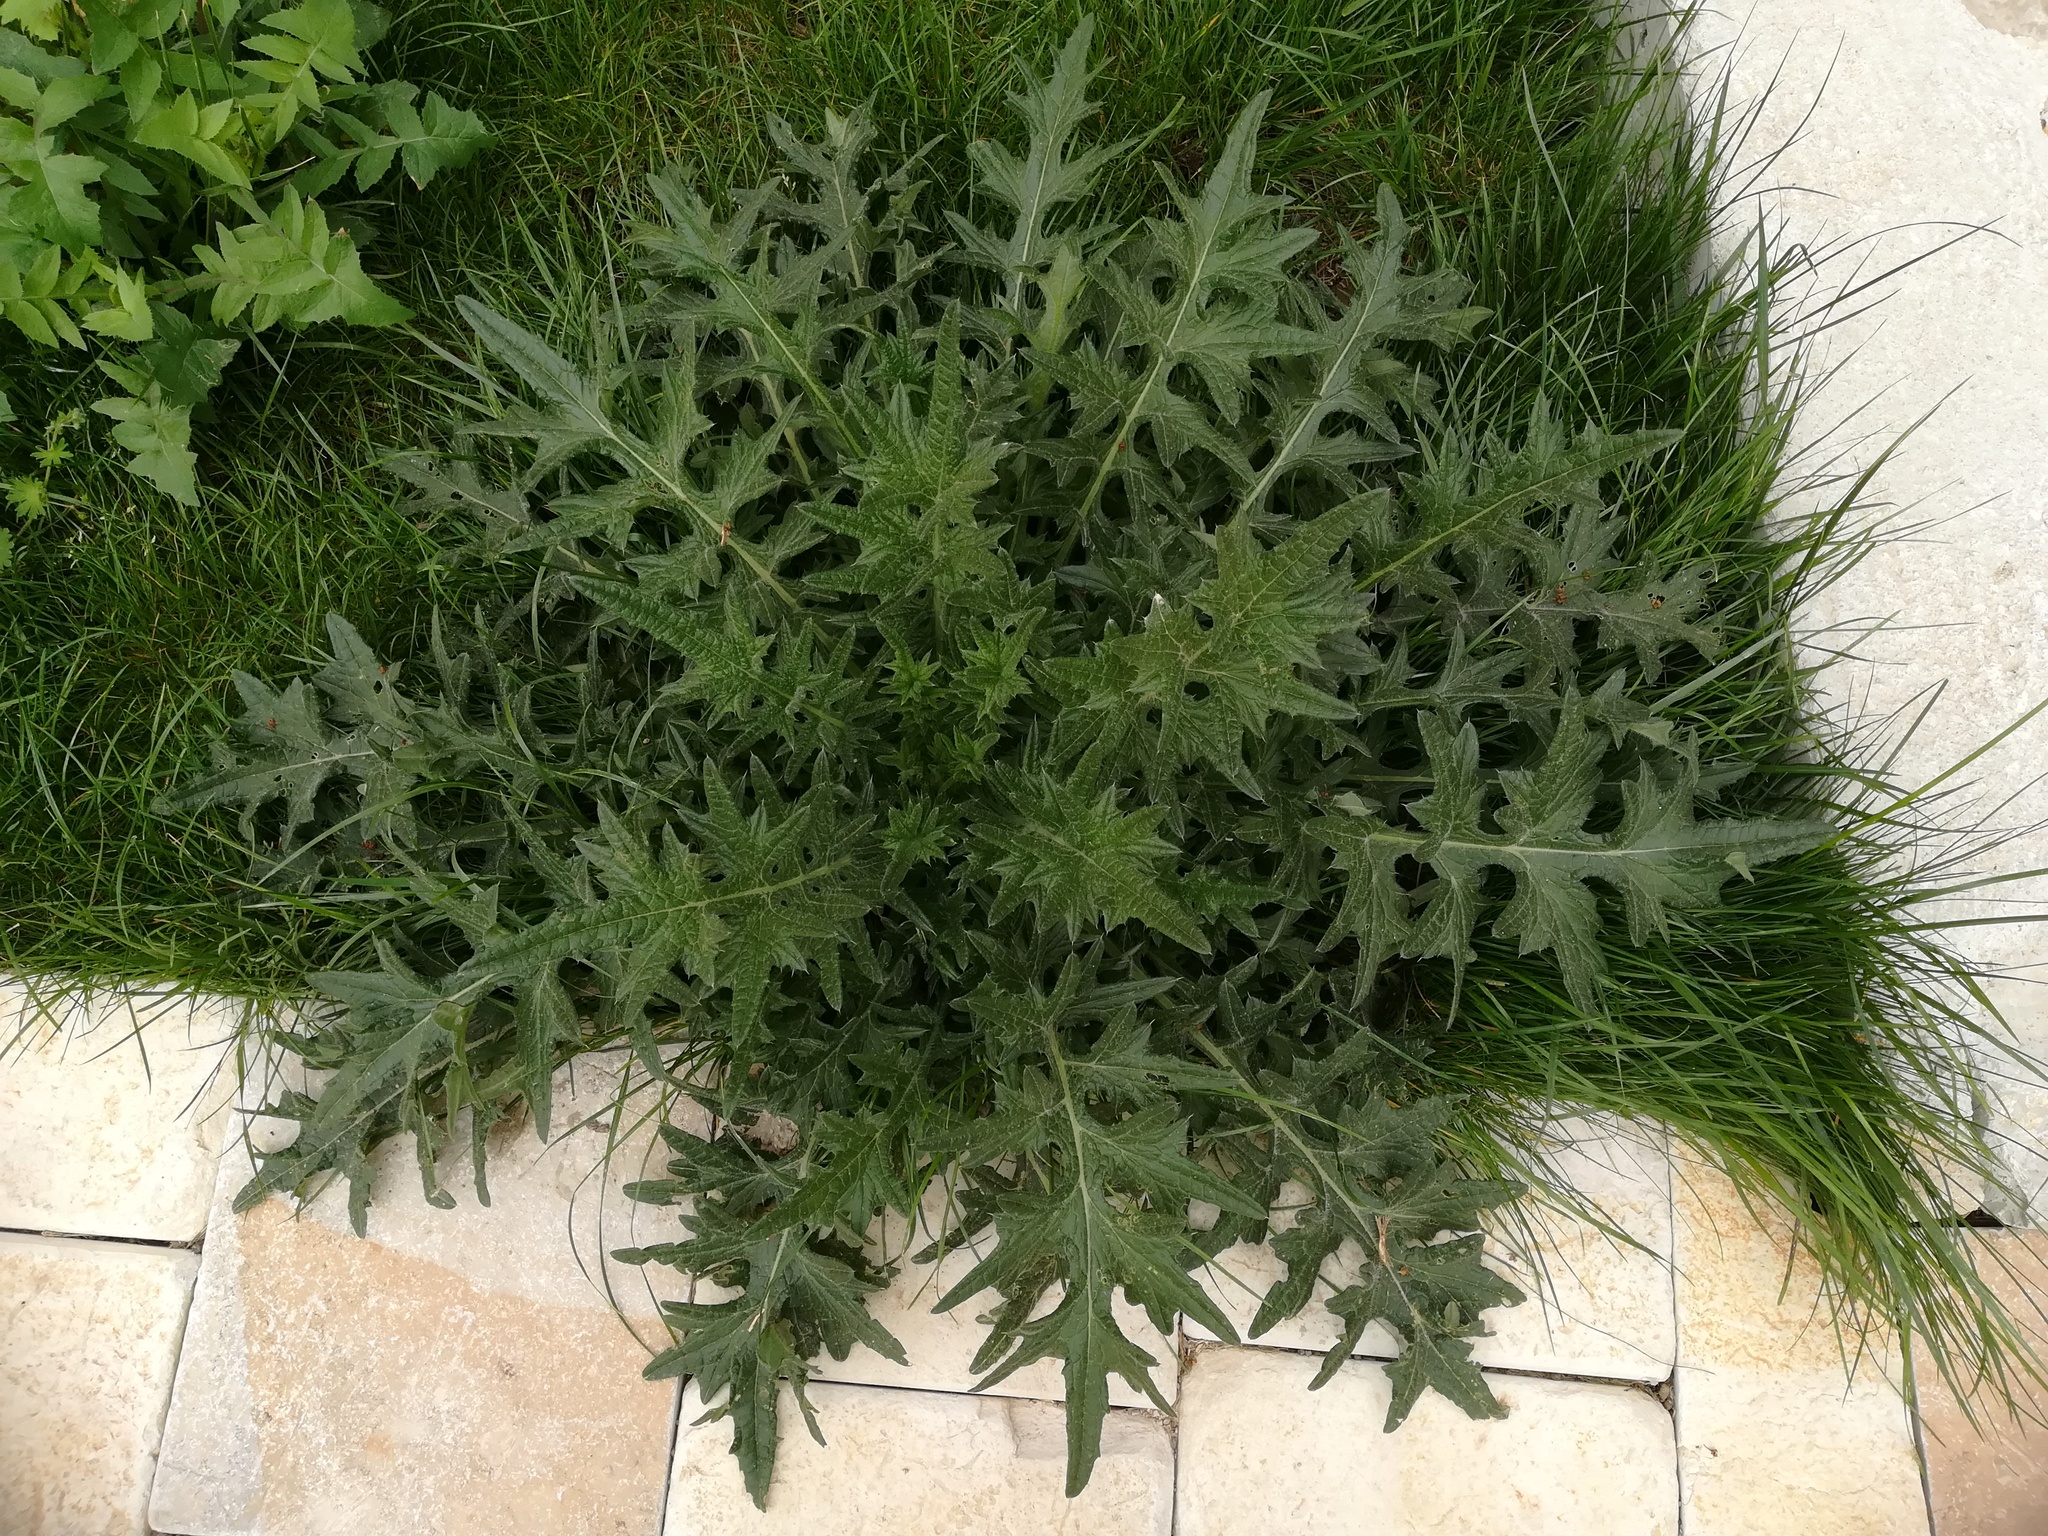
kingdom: Plantae
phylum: Tracheophyta
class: Magnoliopsida
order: Asterales
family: Asteraceae
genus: Cirsium
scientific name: Cirsium vulgare
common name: Bull thistle
